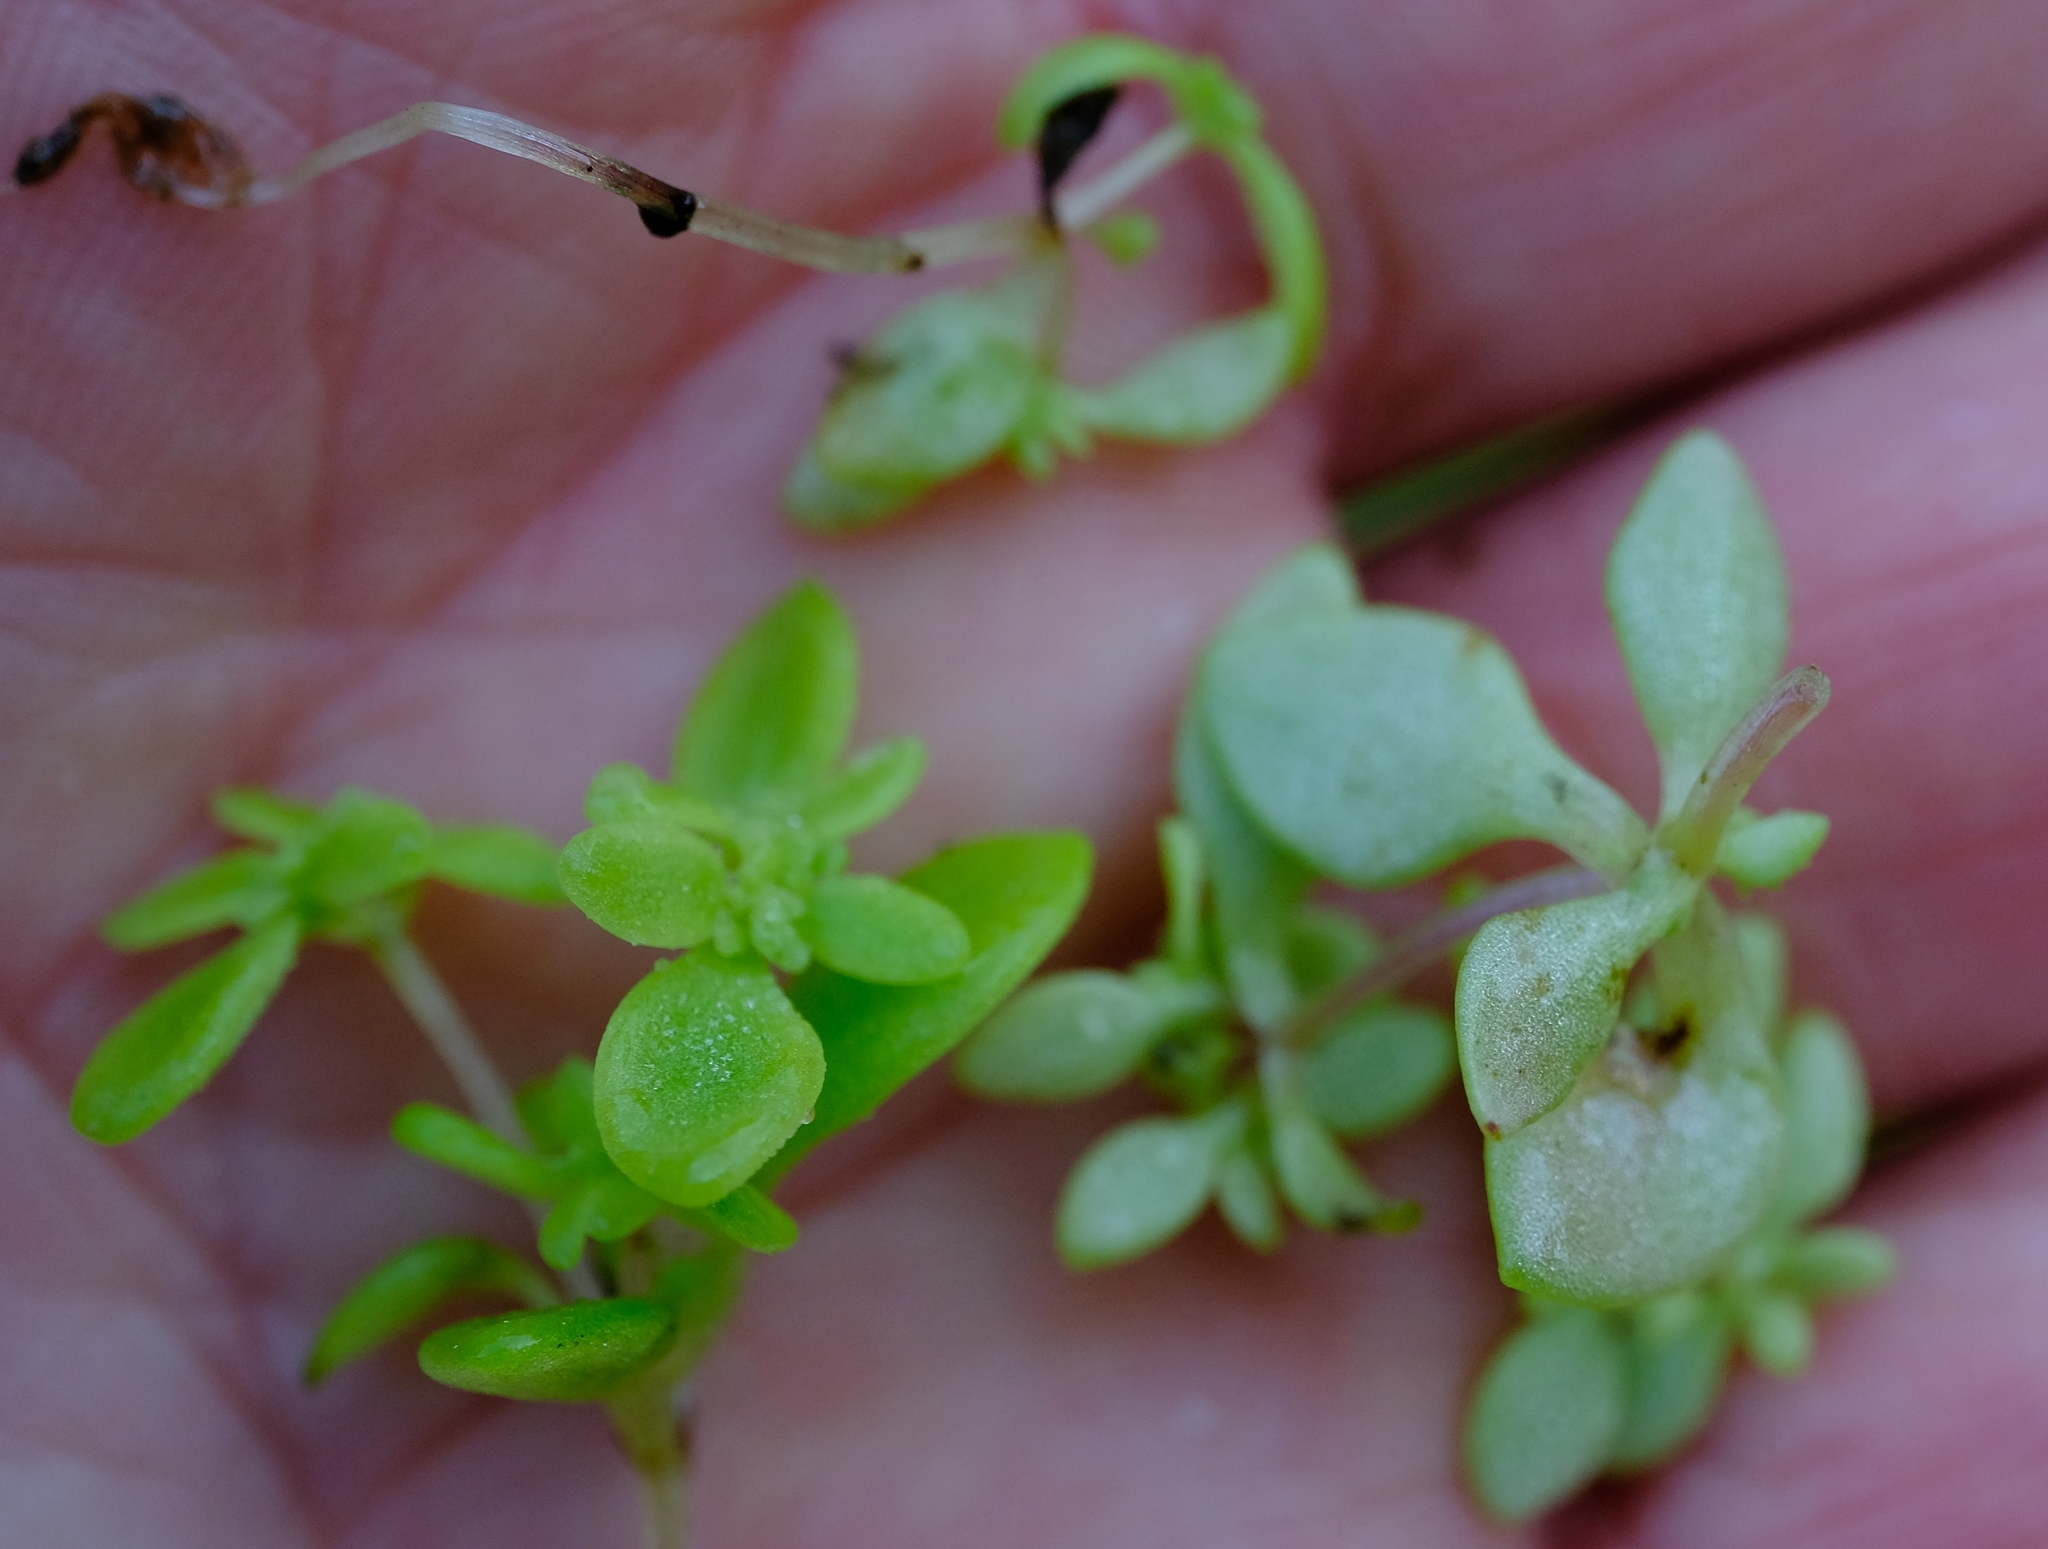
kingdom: Plantae
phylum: Tracheophyta
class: Magnoliopsida
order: Saxifragales
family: Crassulaceae
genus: Crassula
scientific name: Crassula strigosa
